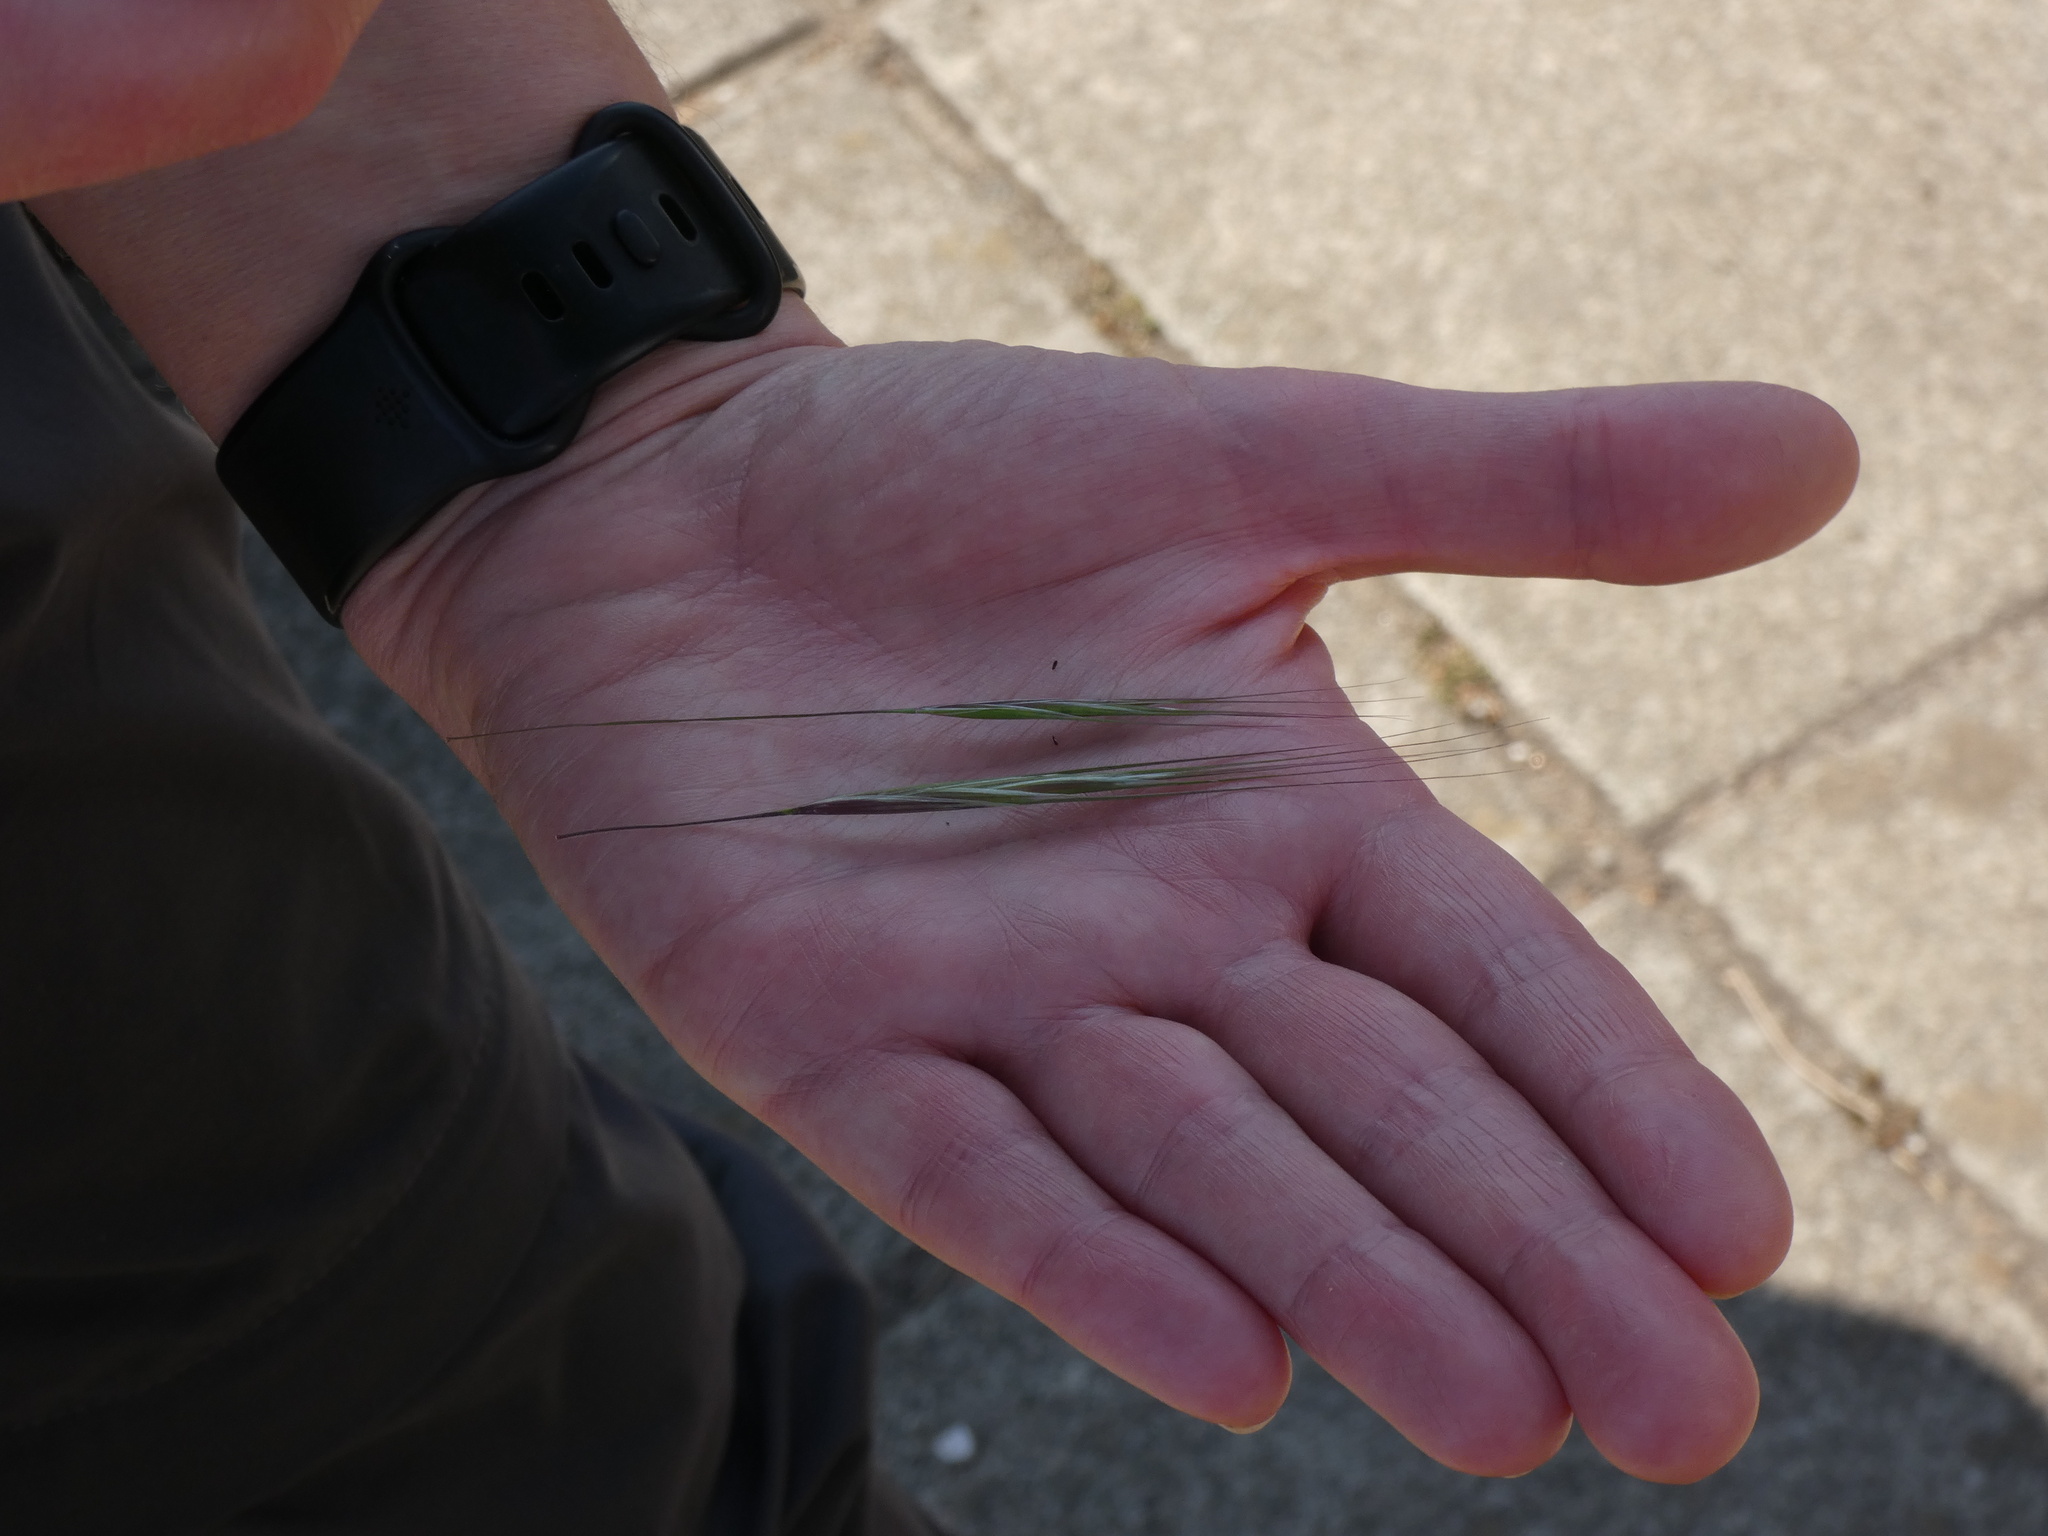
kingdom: Plantae
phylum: Tracheophyta
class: Liliopsida
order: Poales
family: Poaceae
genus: Bromus
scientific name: Bromus diandrus
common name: Ripgut brome
